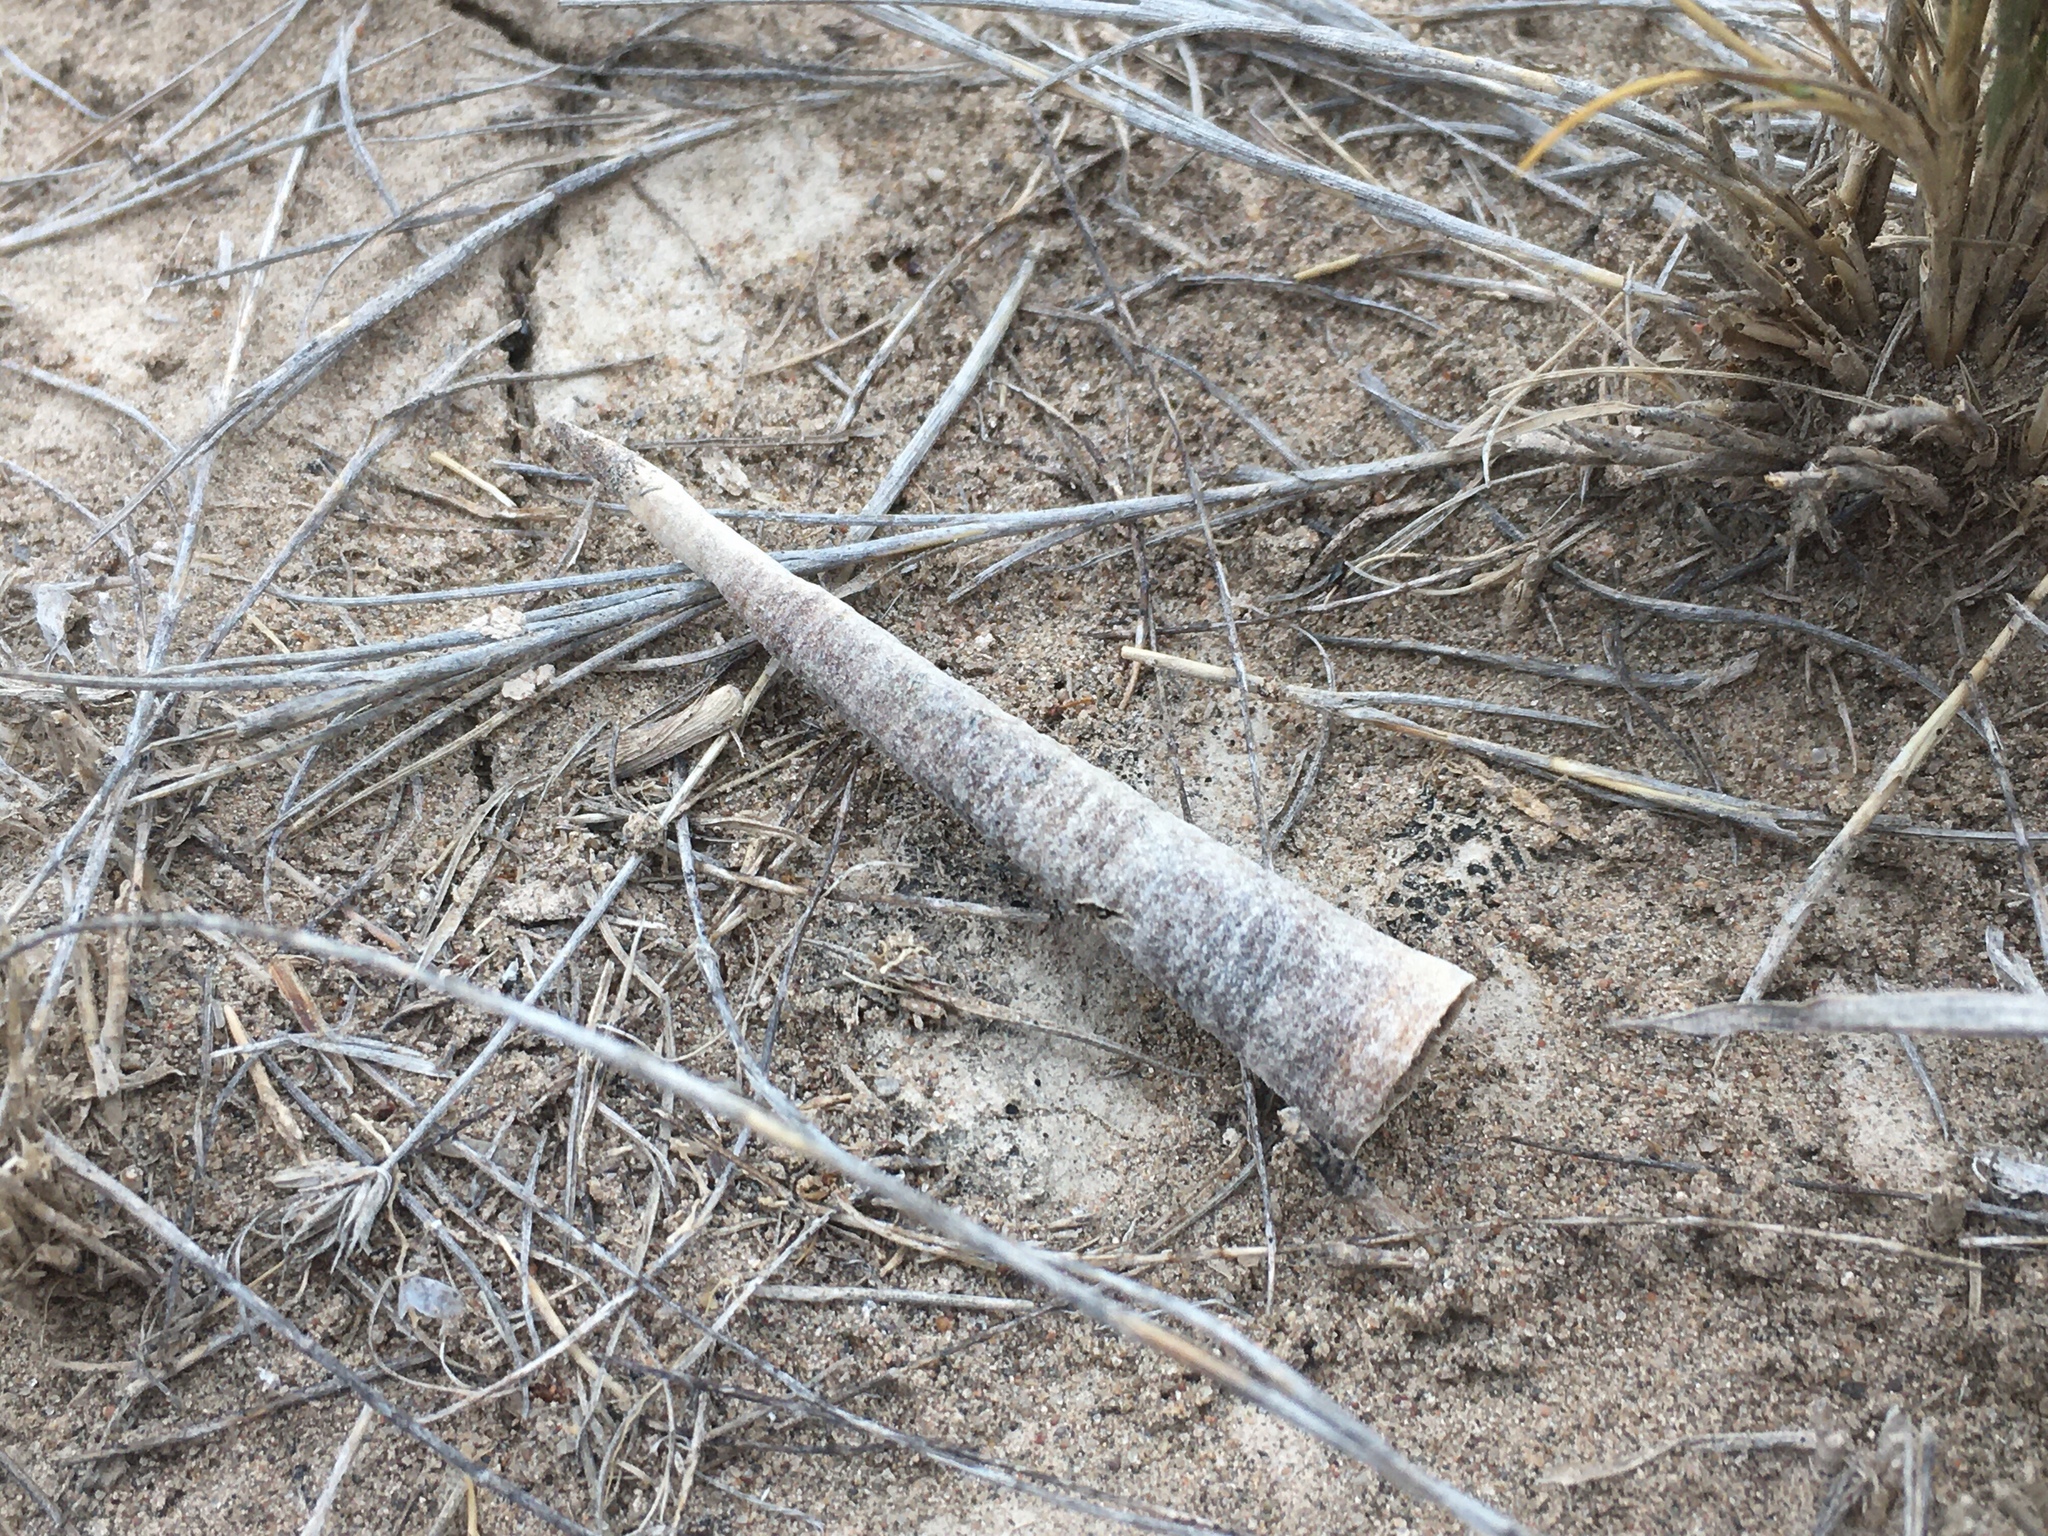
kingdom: Animalia
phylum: Arthropoda
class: Insecta
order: Lepidoptera
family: Psychidae
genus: Oiketicus
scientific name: Oiketicus geyeri
